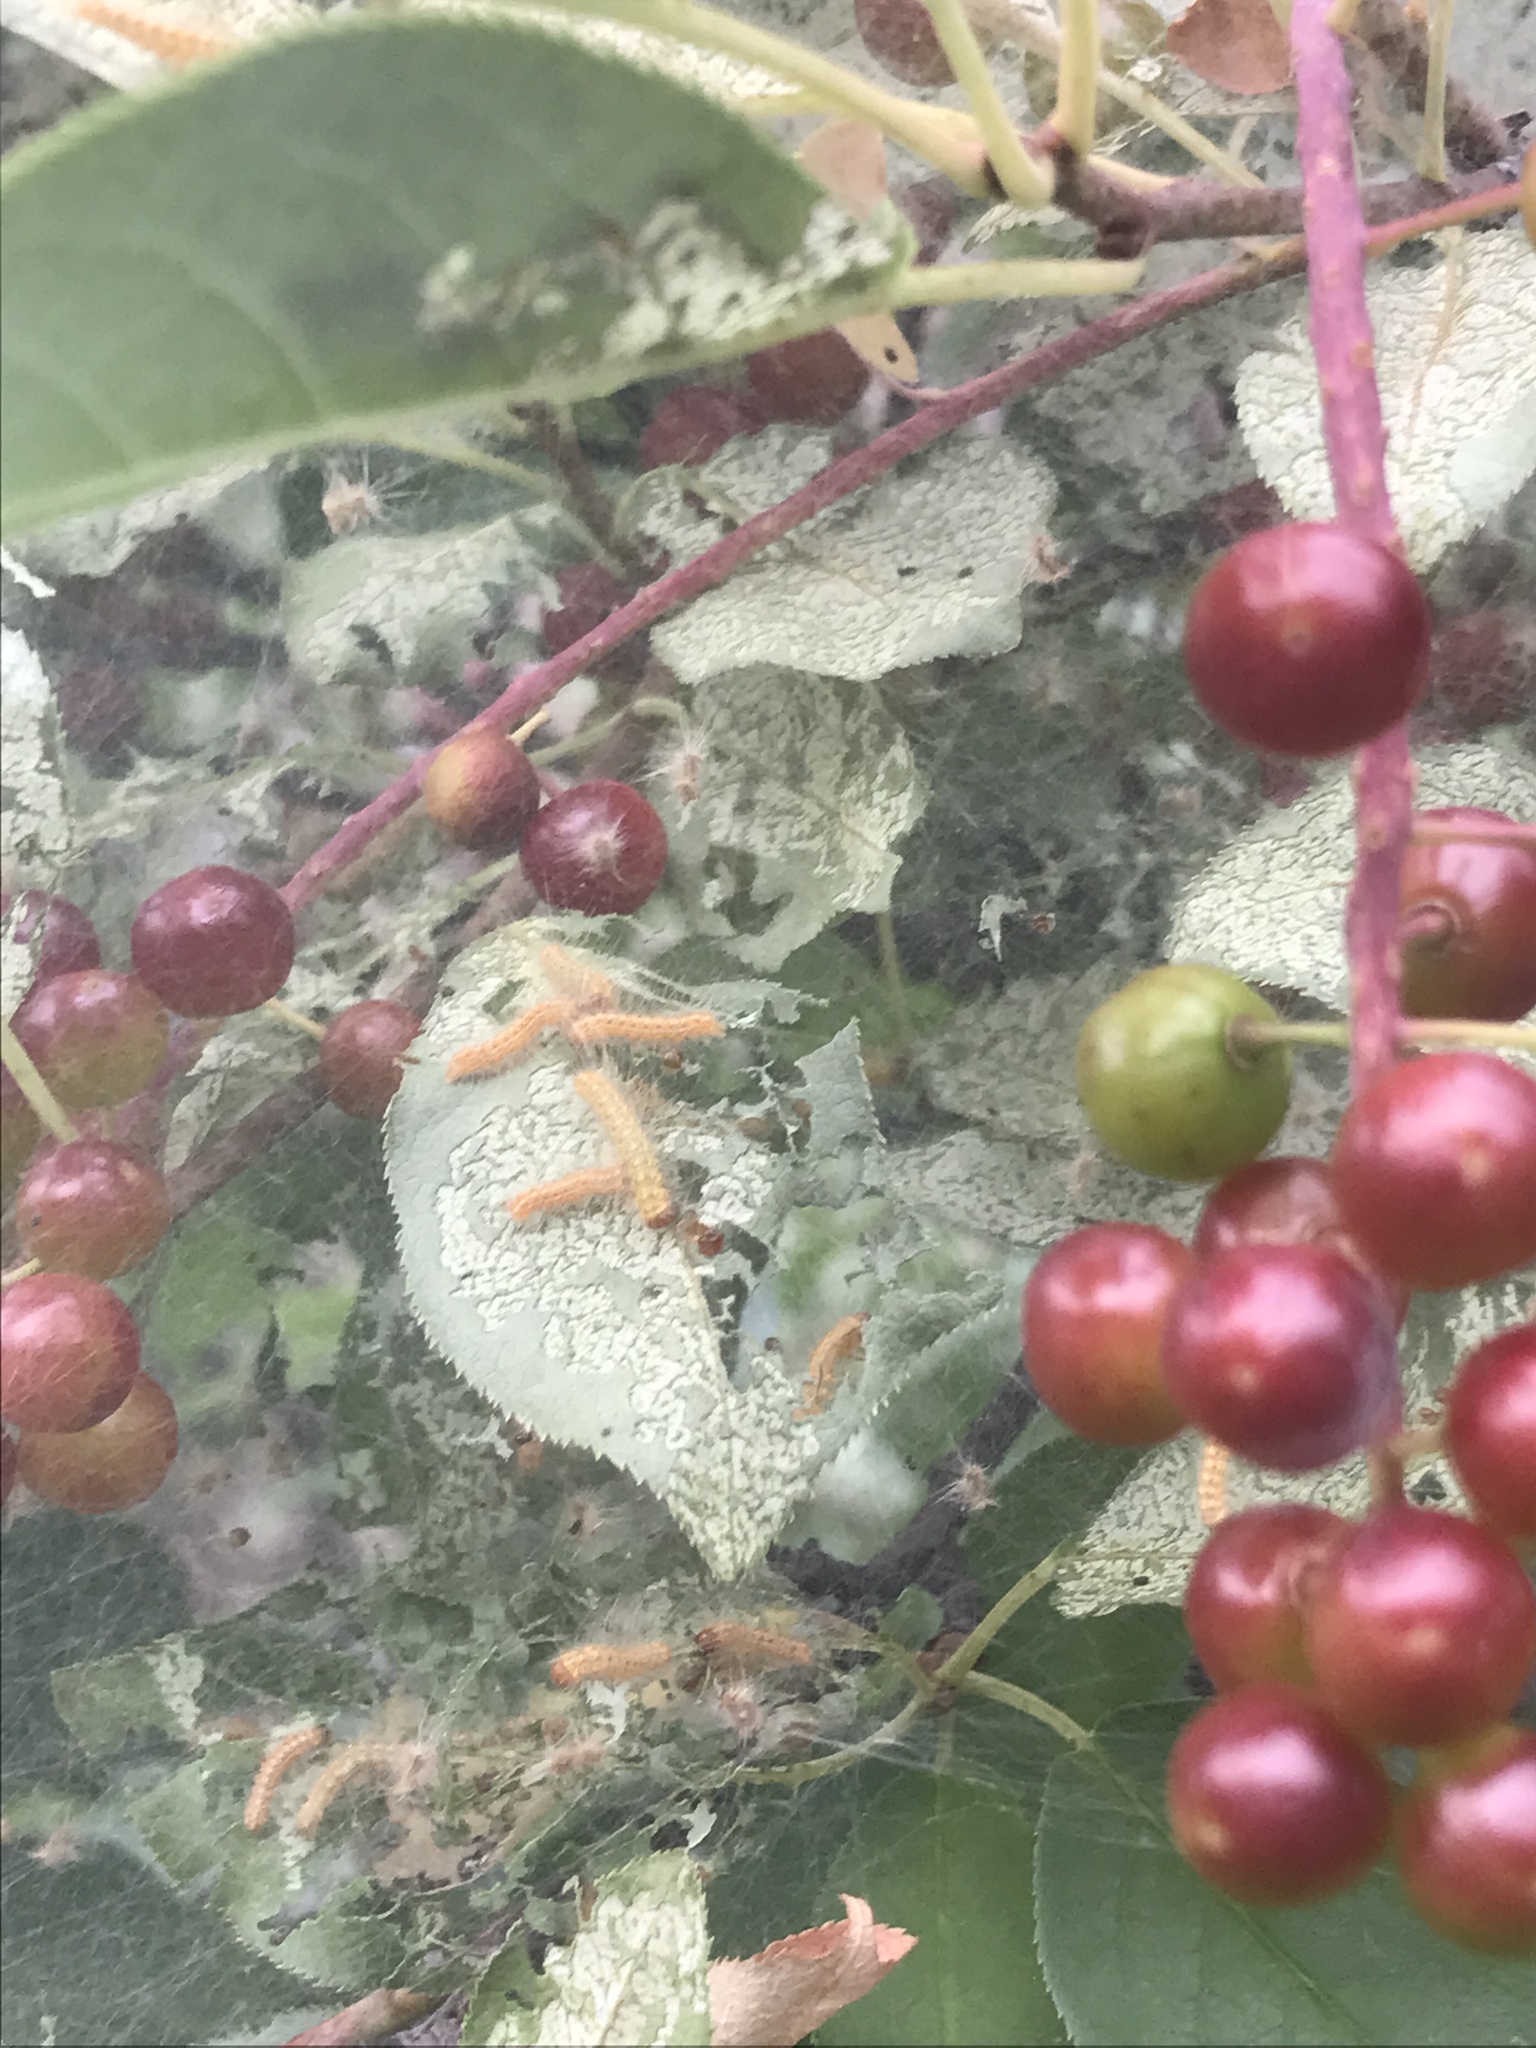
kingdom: Animalia
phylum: Arthropoda
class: Insecta
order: Lepidoptera
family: Erebidae
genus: Hyphantria
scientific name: Hyphantria cunea
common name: American white moth
